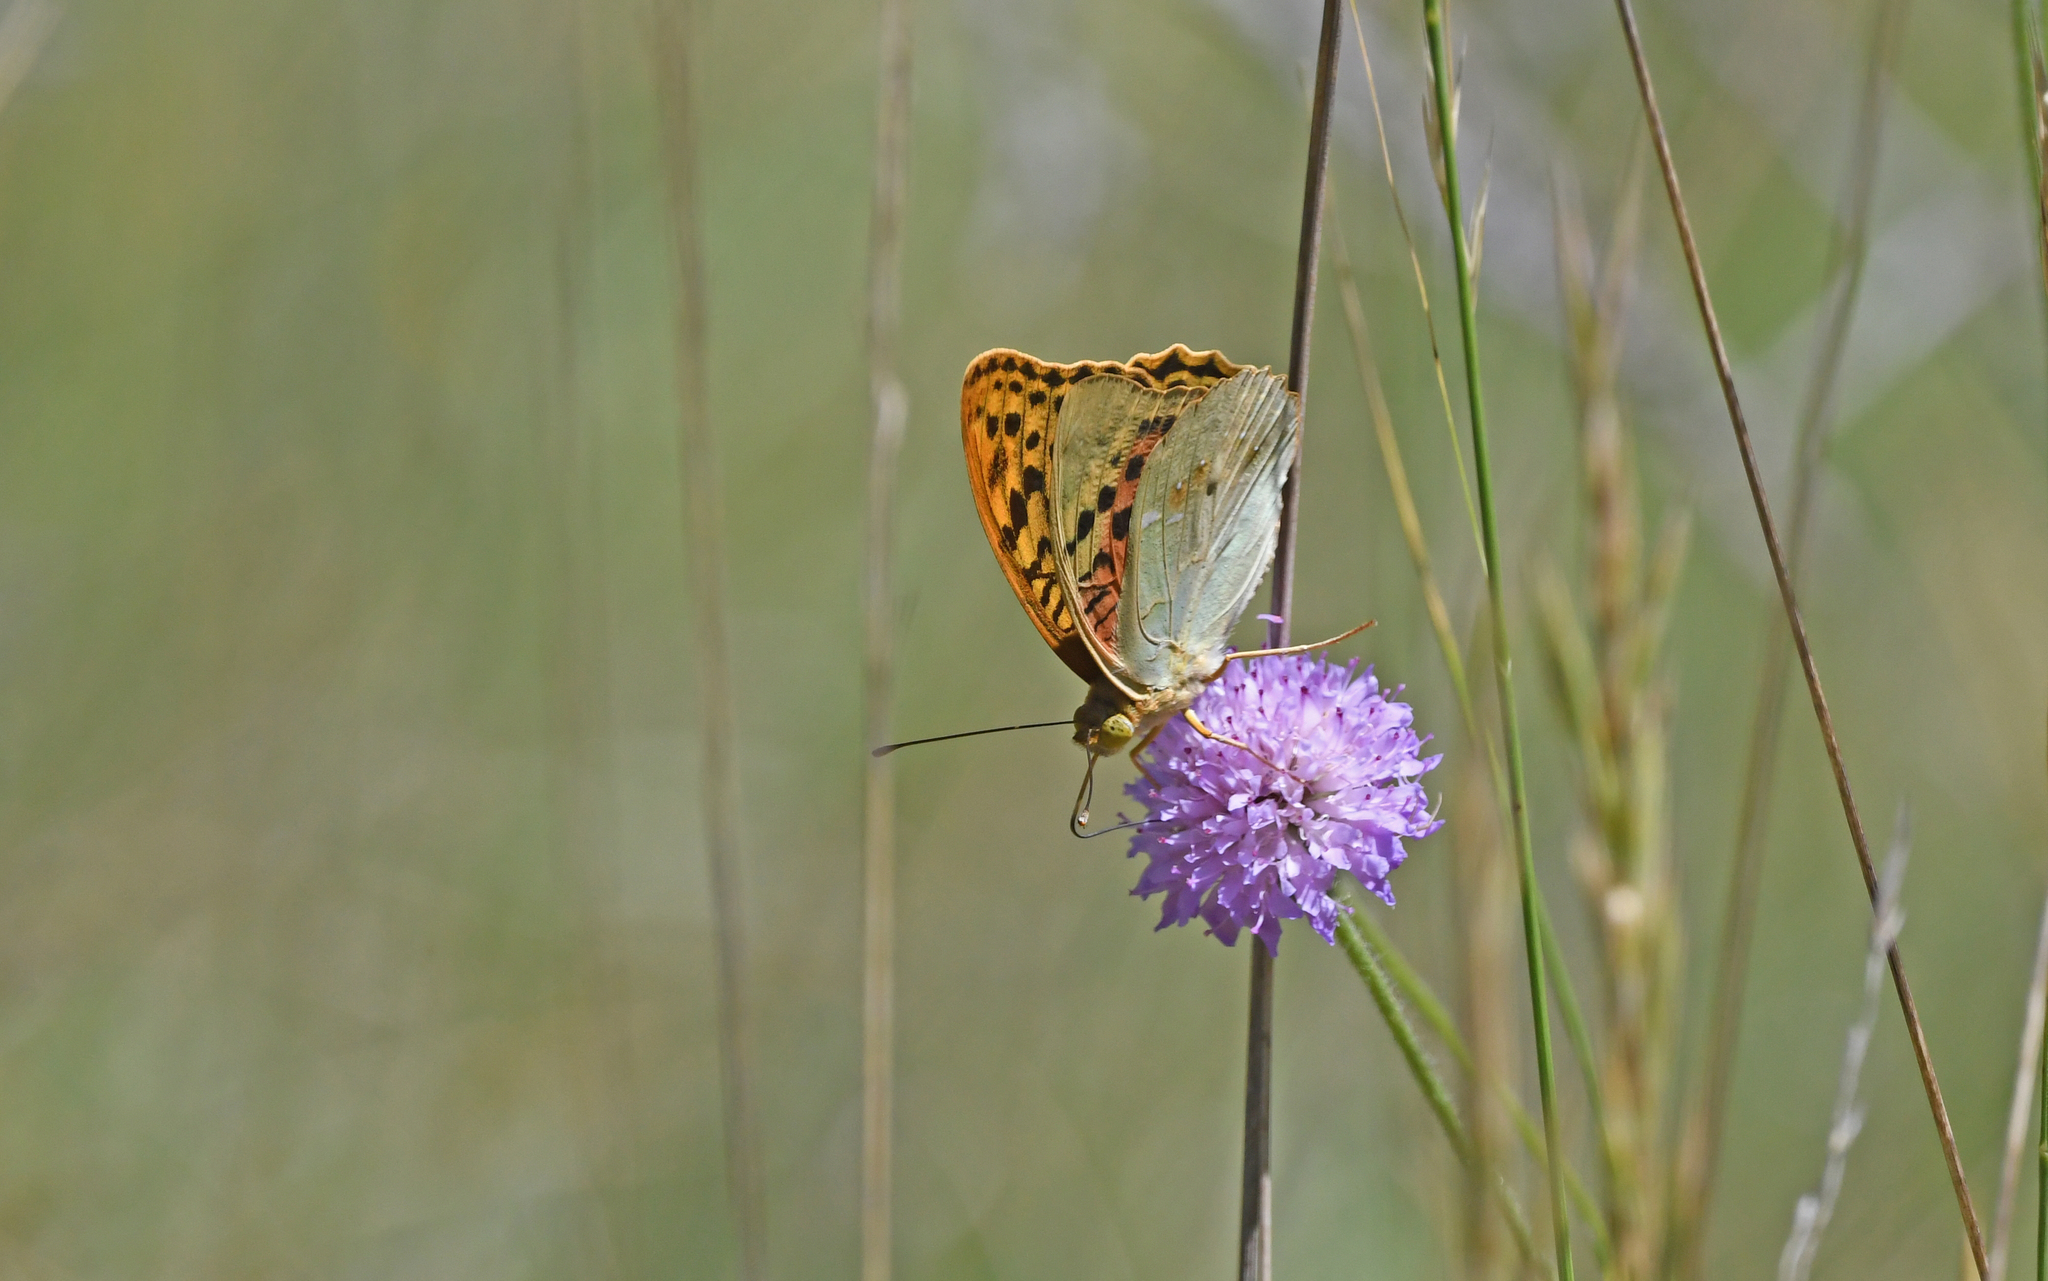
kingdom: Animalia
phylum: Arthropoda
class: Insecta
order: Lepidoptera
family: Nymphalidae
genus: Damora
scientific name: Damora pandora
